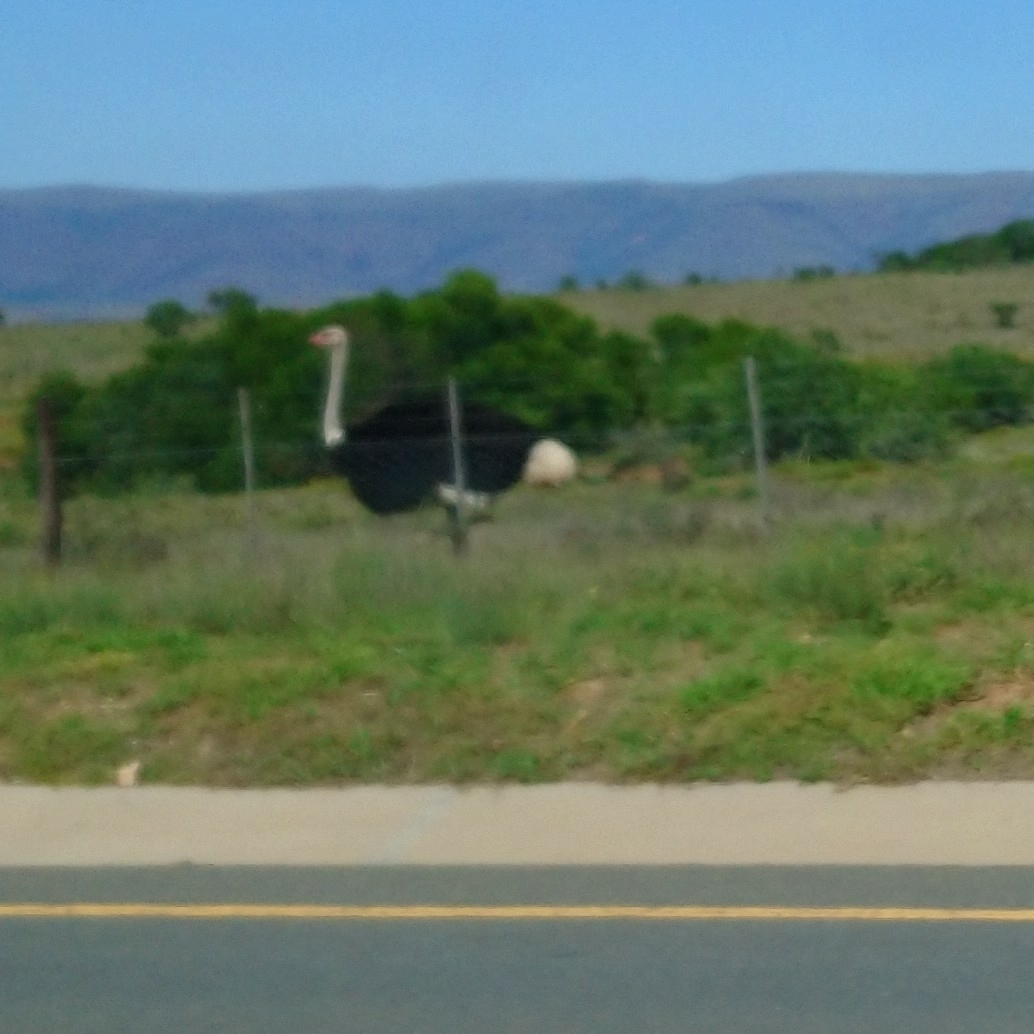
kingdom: Animalia
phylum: Chordata
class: Aves
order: Struthioniformes
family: Struthionidae
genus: Struthio
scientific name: Struthio camelus
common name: Common ostrich
